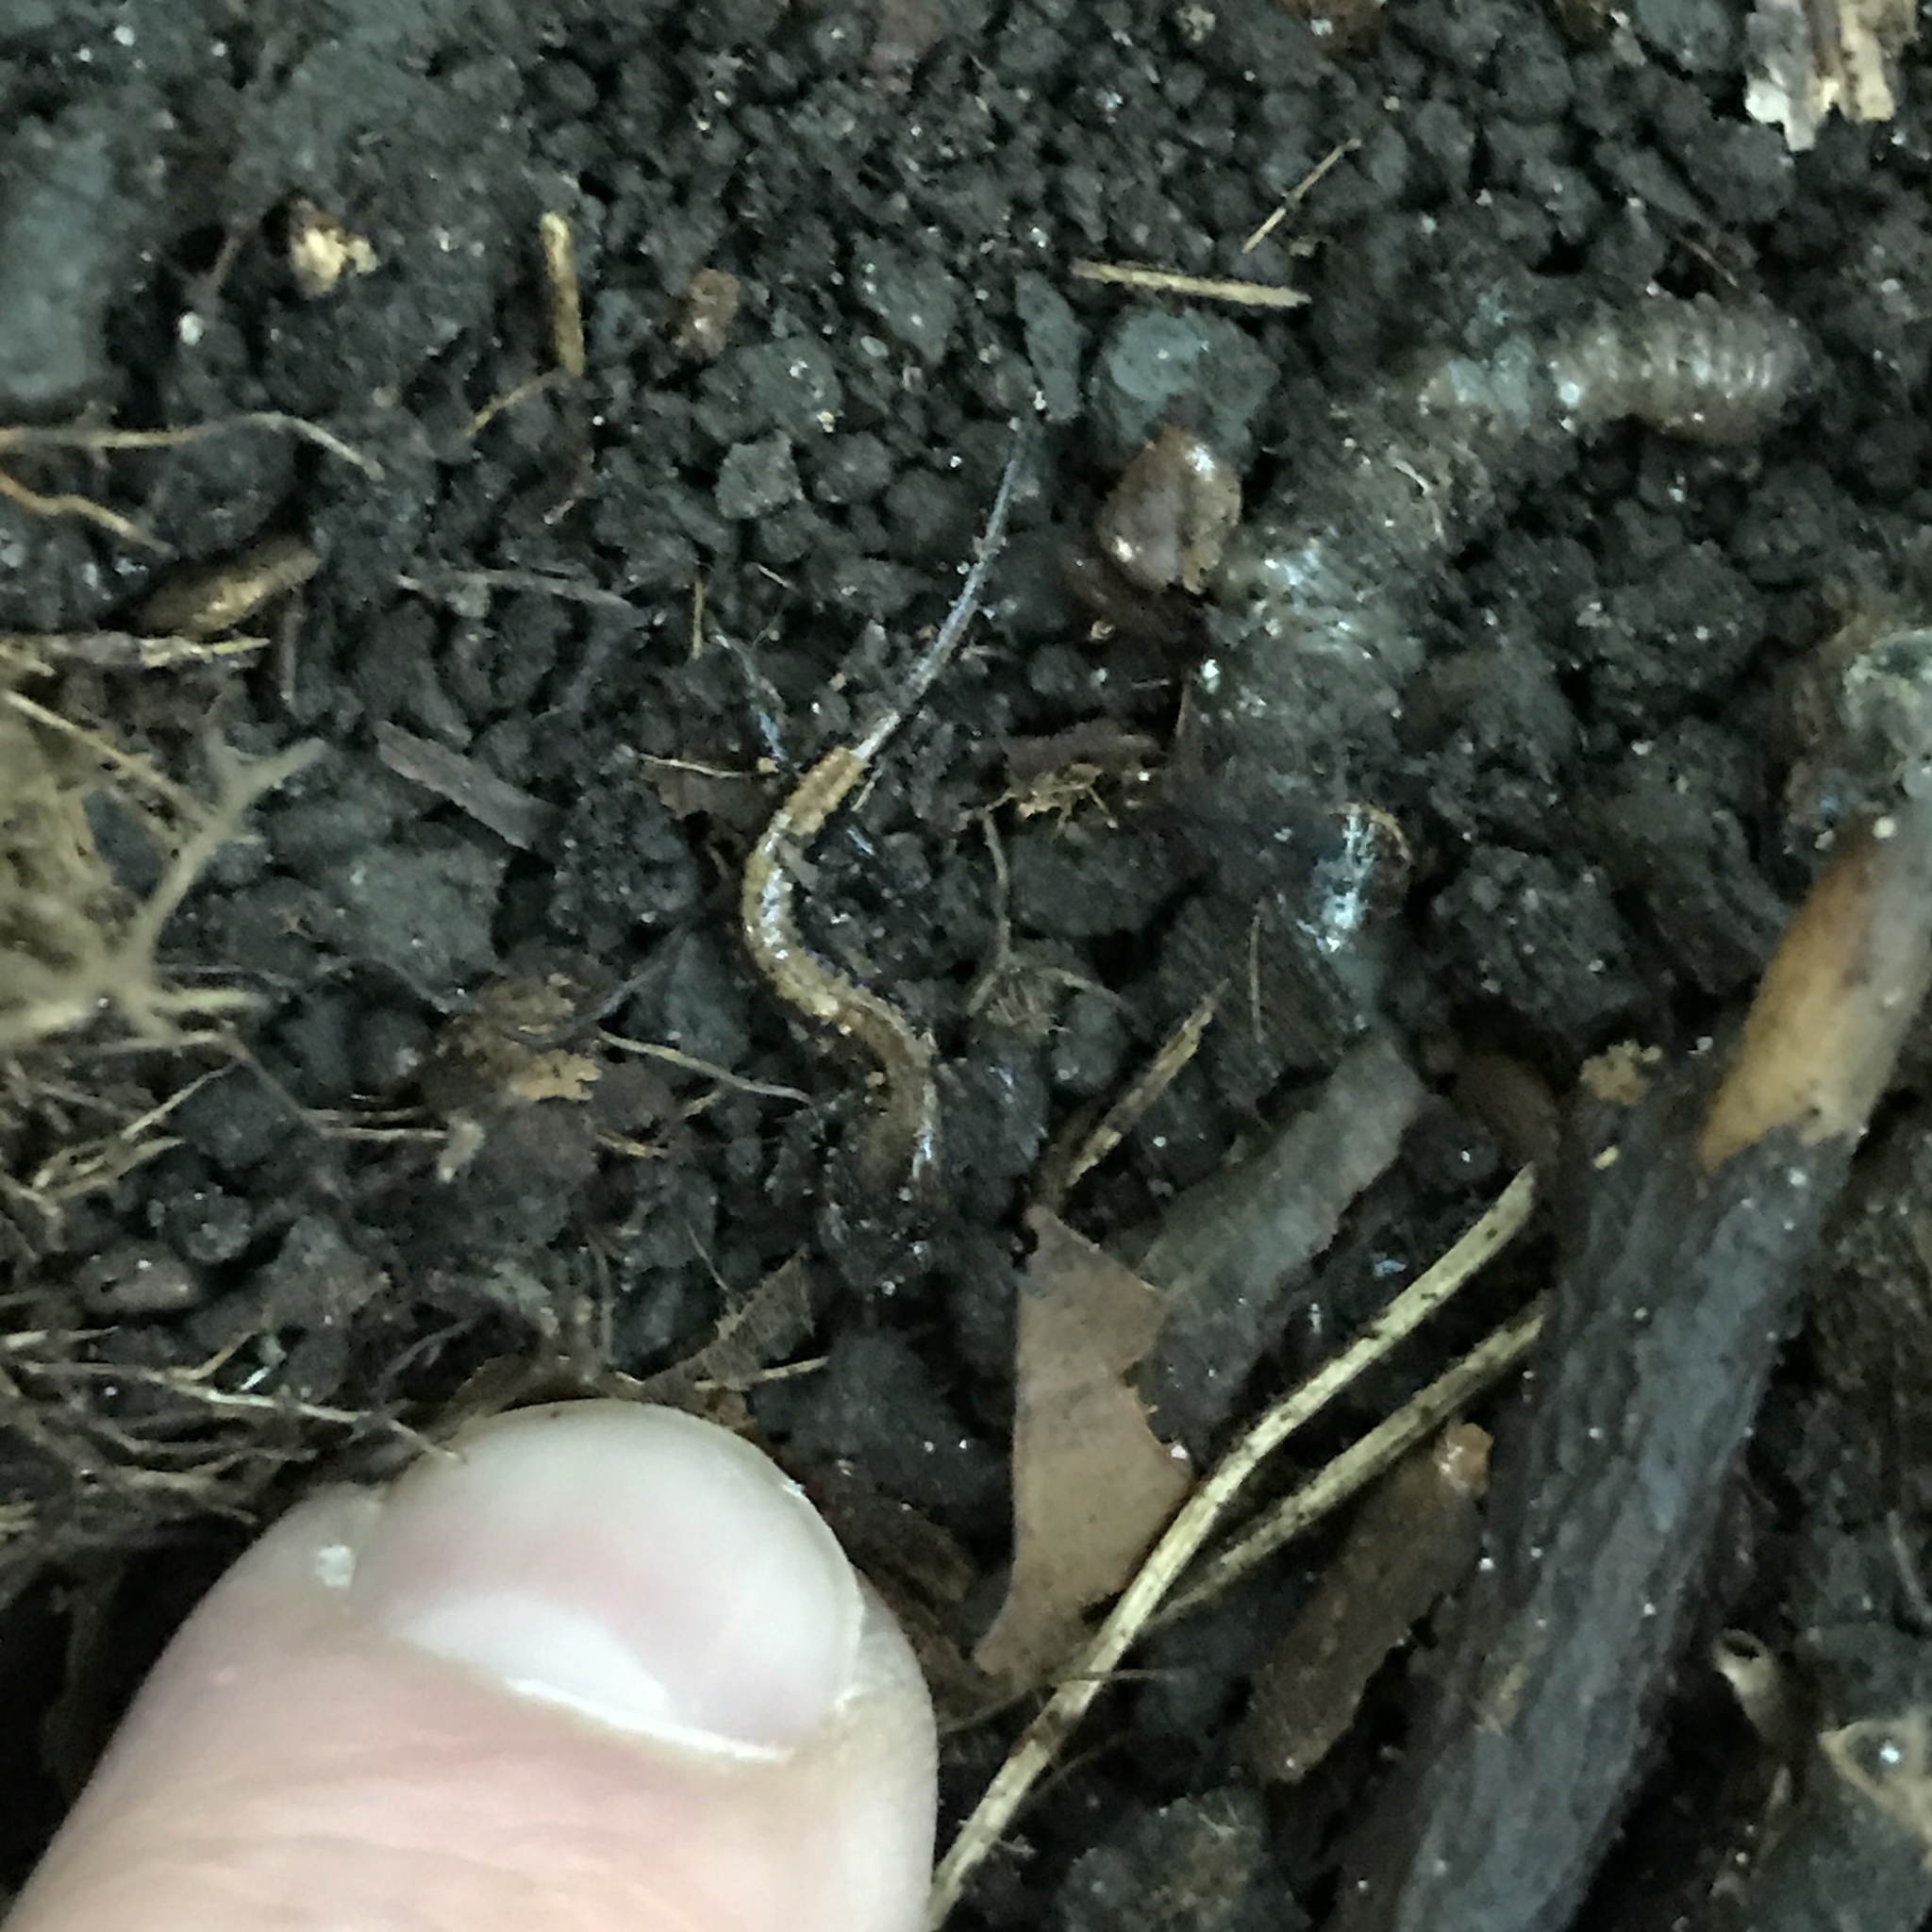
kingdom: Animalia
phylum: Chordata
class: Amphibia
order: Caudata
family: Plethodontidae
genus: Plethodon
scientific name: Plethodon cinereus
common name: Redback salamander
